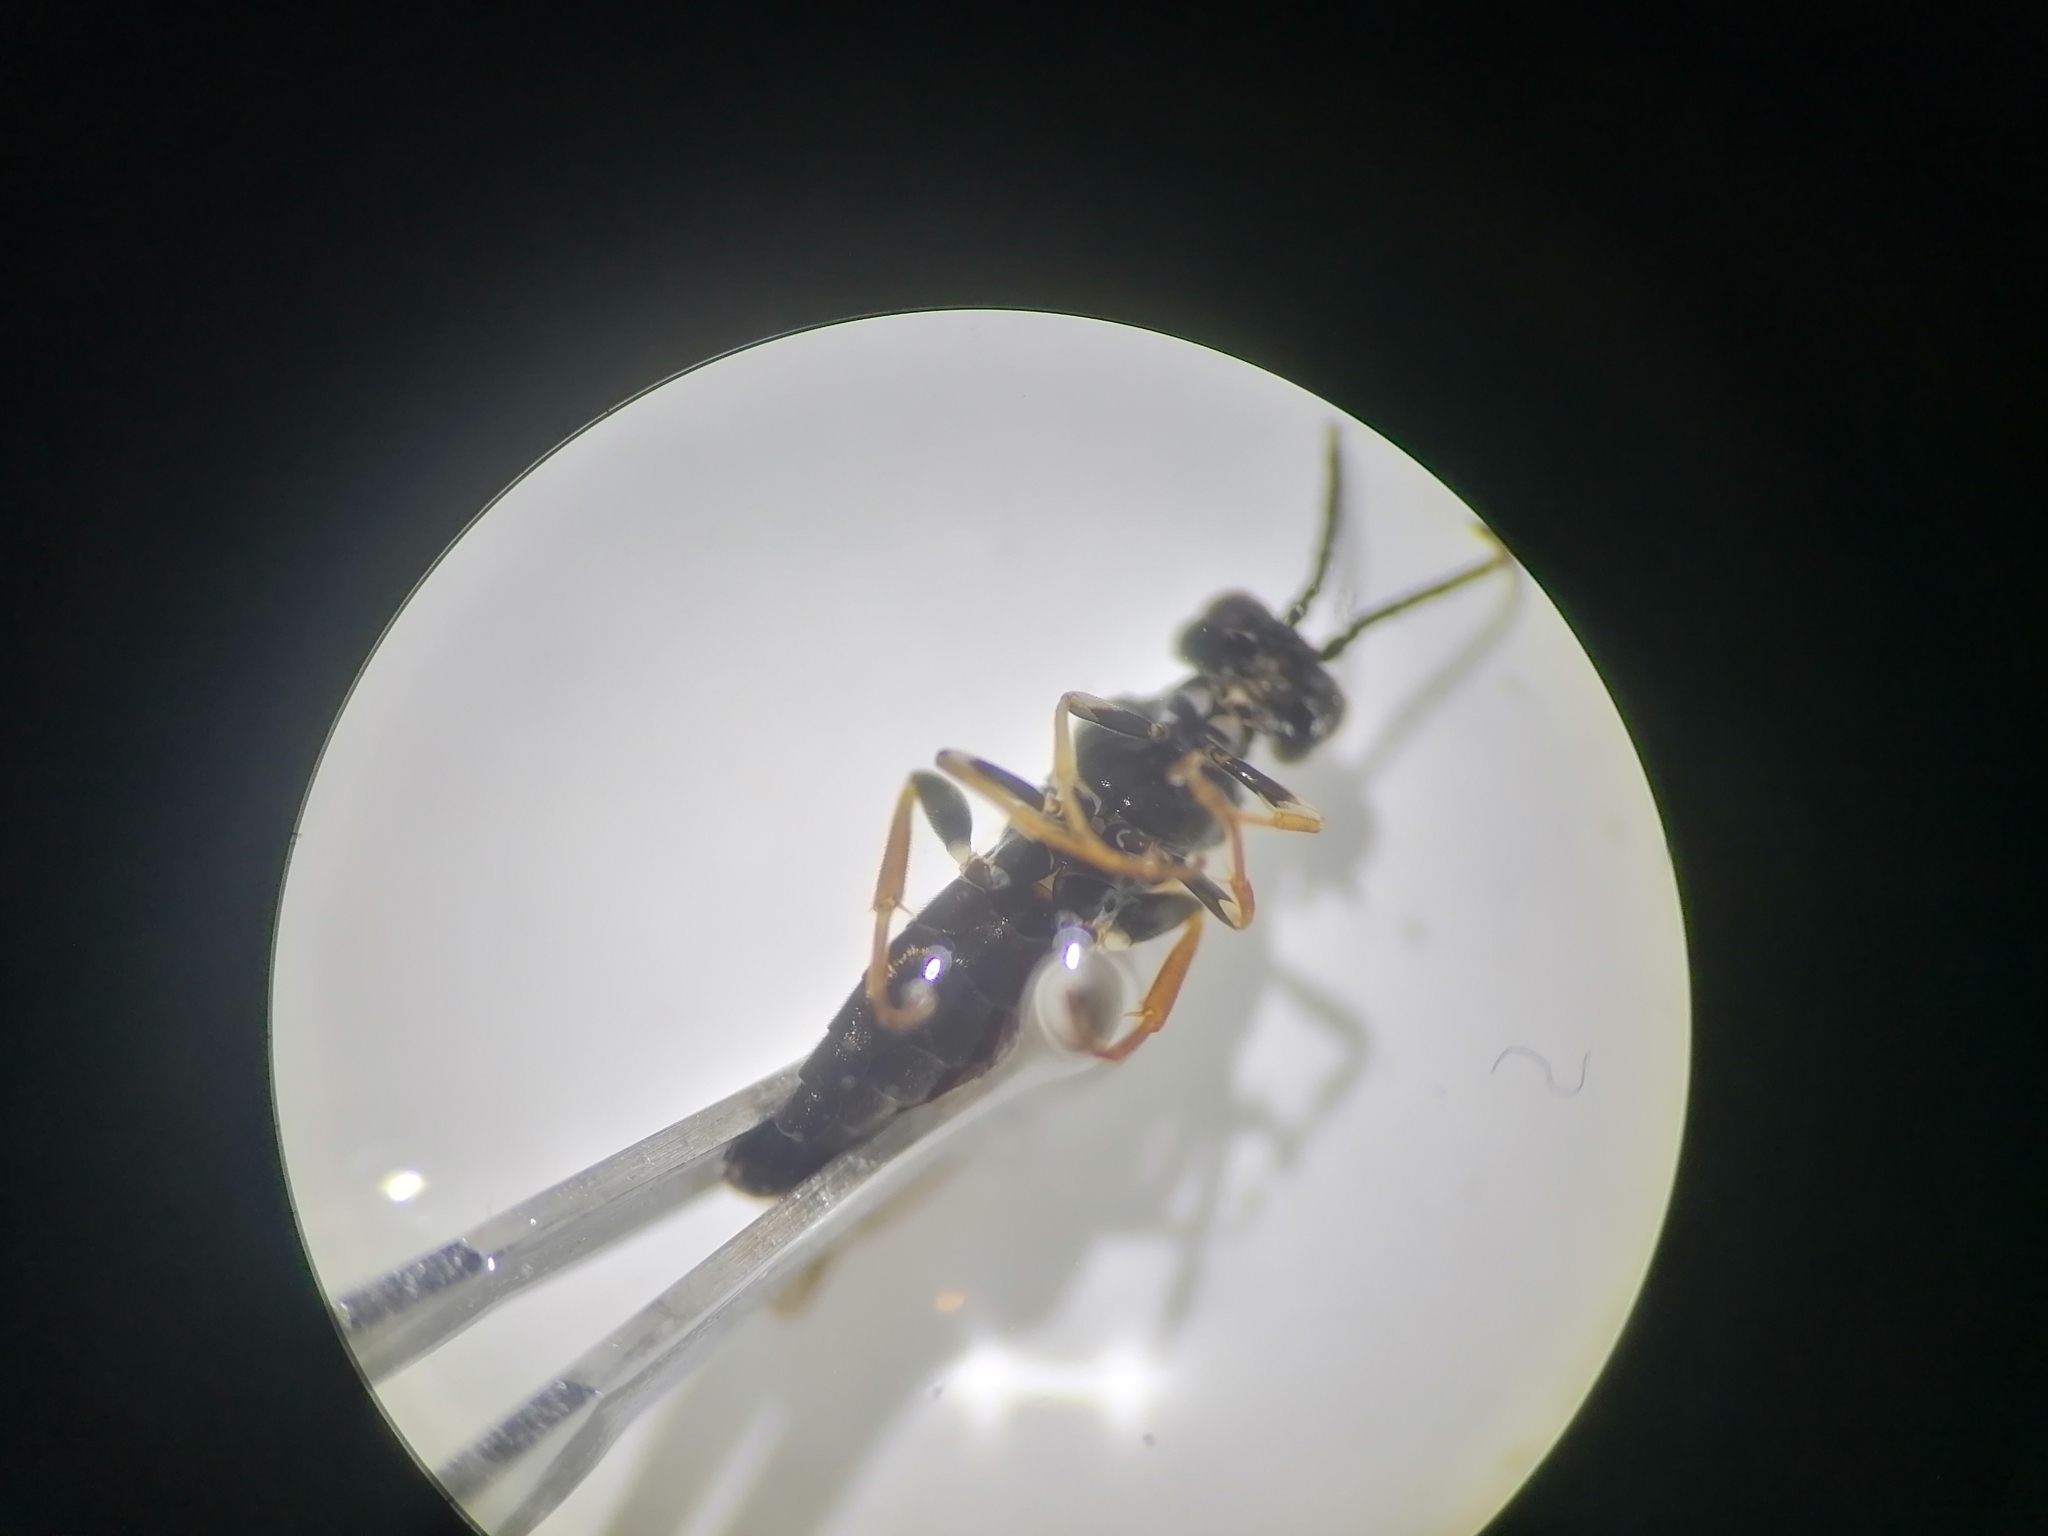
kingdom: Animalia
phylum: Arthropoda
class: Insecta
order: Hymenoptera
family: Tenthredinidae
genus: Allantus
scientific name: Allantus cinctus
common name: Curled rose sawfly
